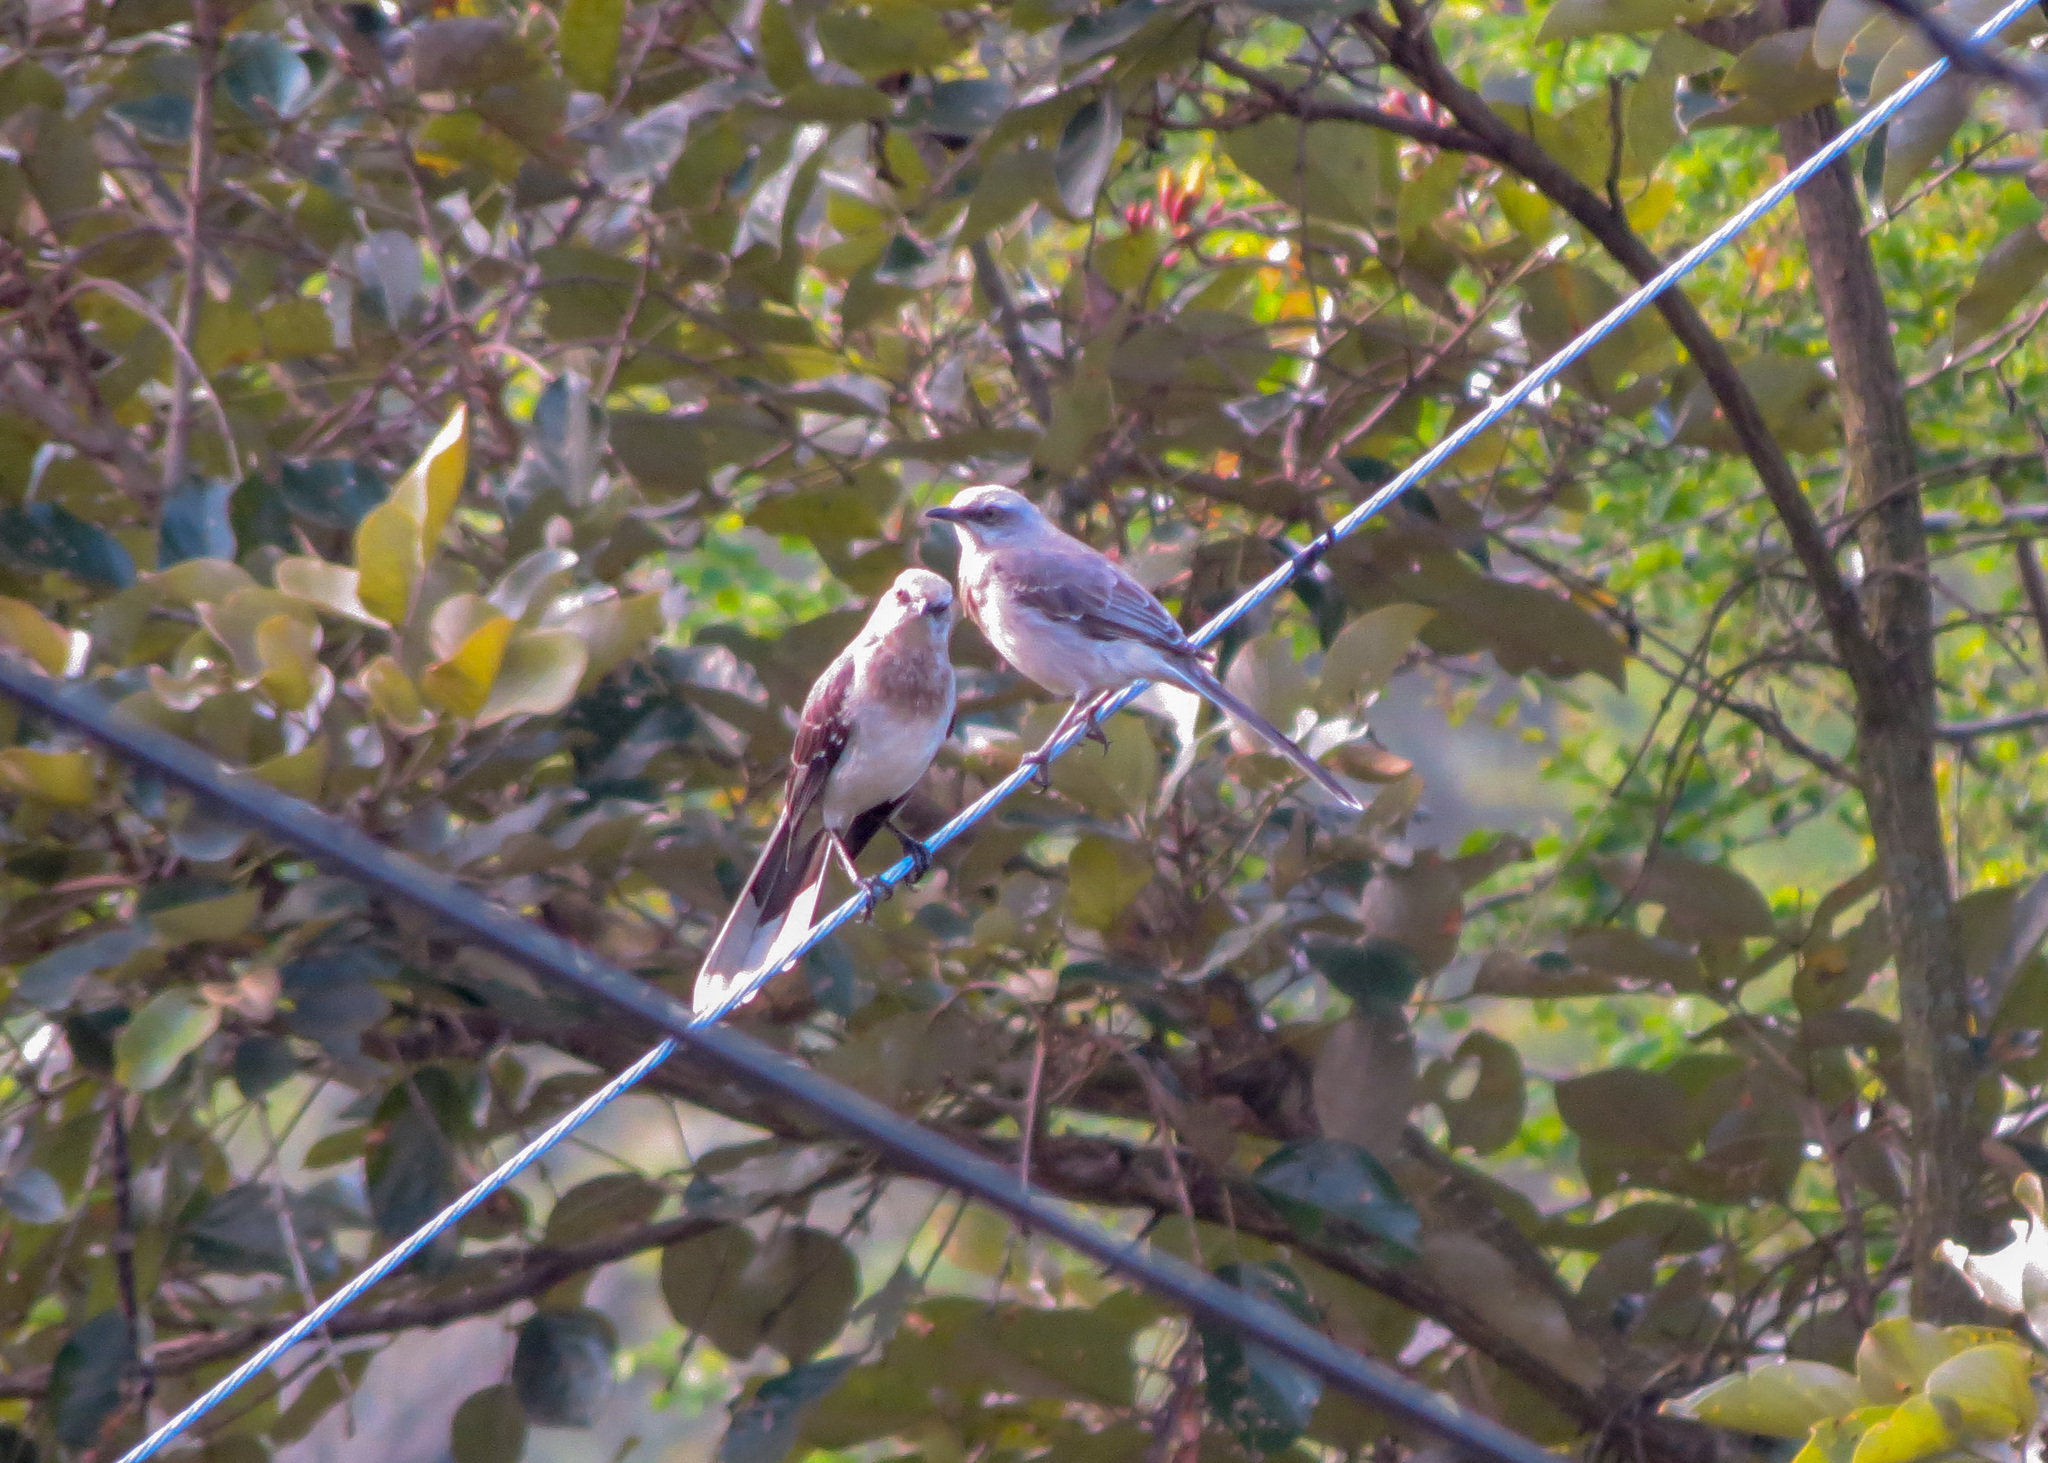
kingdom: Animalia
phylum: Chordata
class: Aves
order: Passeriformes
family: Mimidae
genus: Mimus
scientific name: Mimus gilvus
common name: Tropical mockingbird
